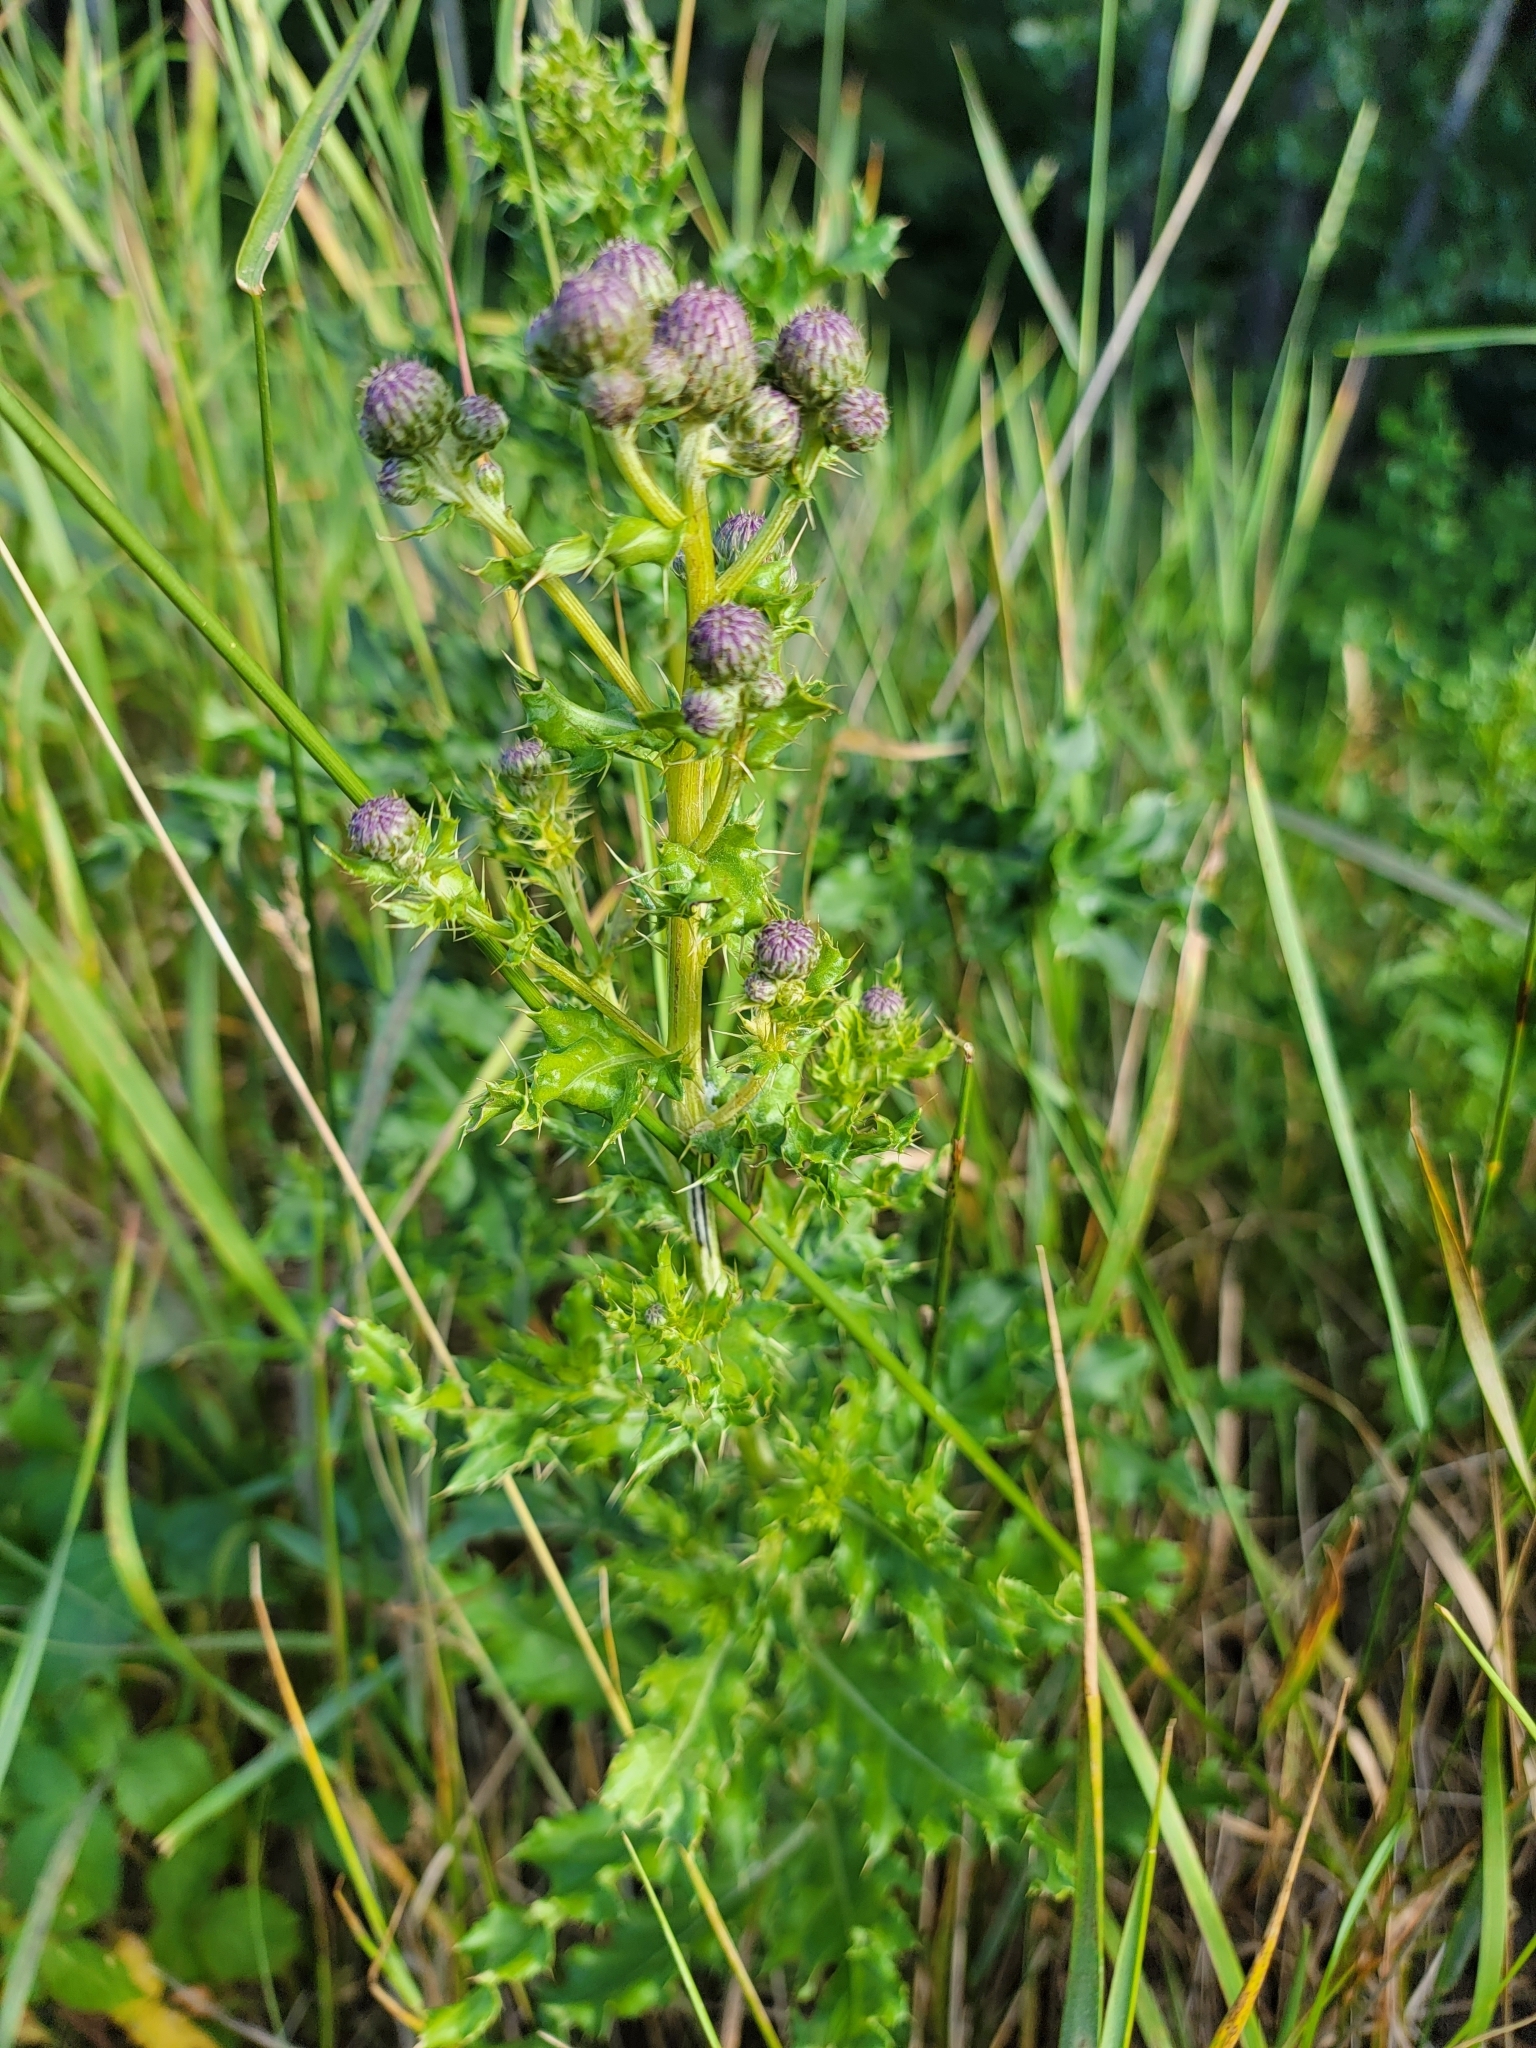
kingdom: Plantae
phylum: Tracheophyta
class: Magnoliopsida
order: Asterales
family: Asteraceae
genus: Cirsium
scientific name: Cirsium arvense
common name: Creeping thistle
